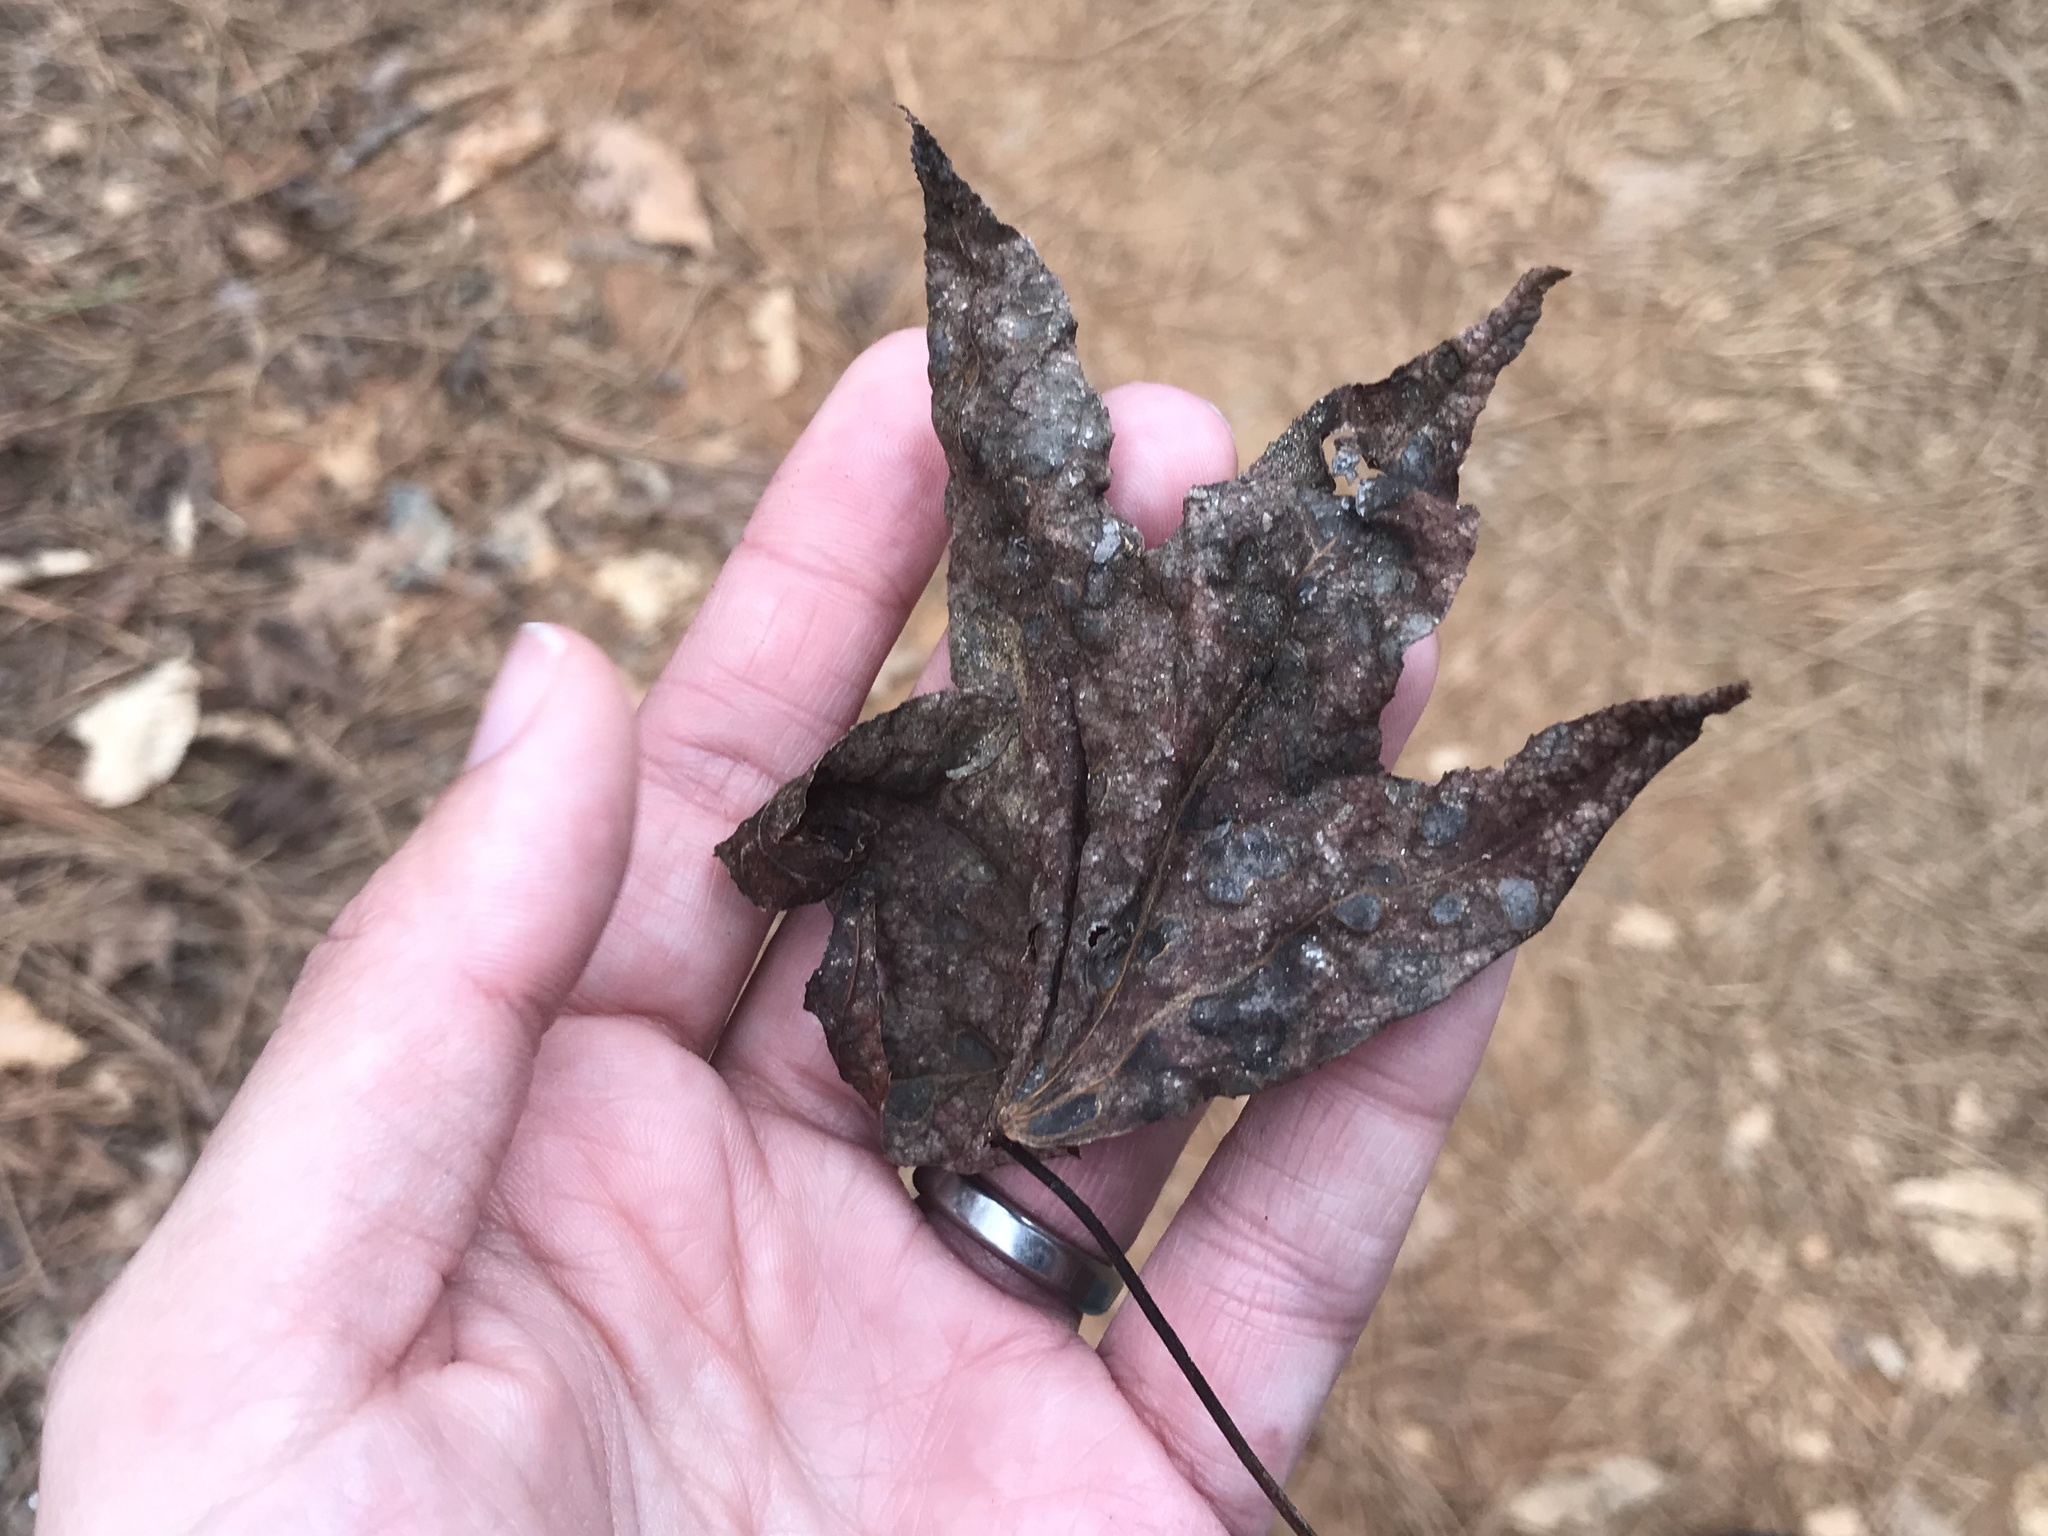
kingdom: Plantae
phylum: Tracheophyta
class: Magnoliopsida
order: Saxifragales
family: Altingiaceae
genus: Liquidambar
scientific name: Liquidambar styraciflua
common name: Sweet gum
